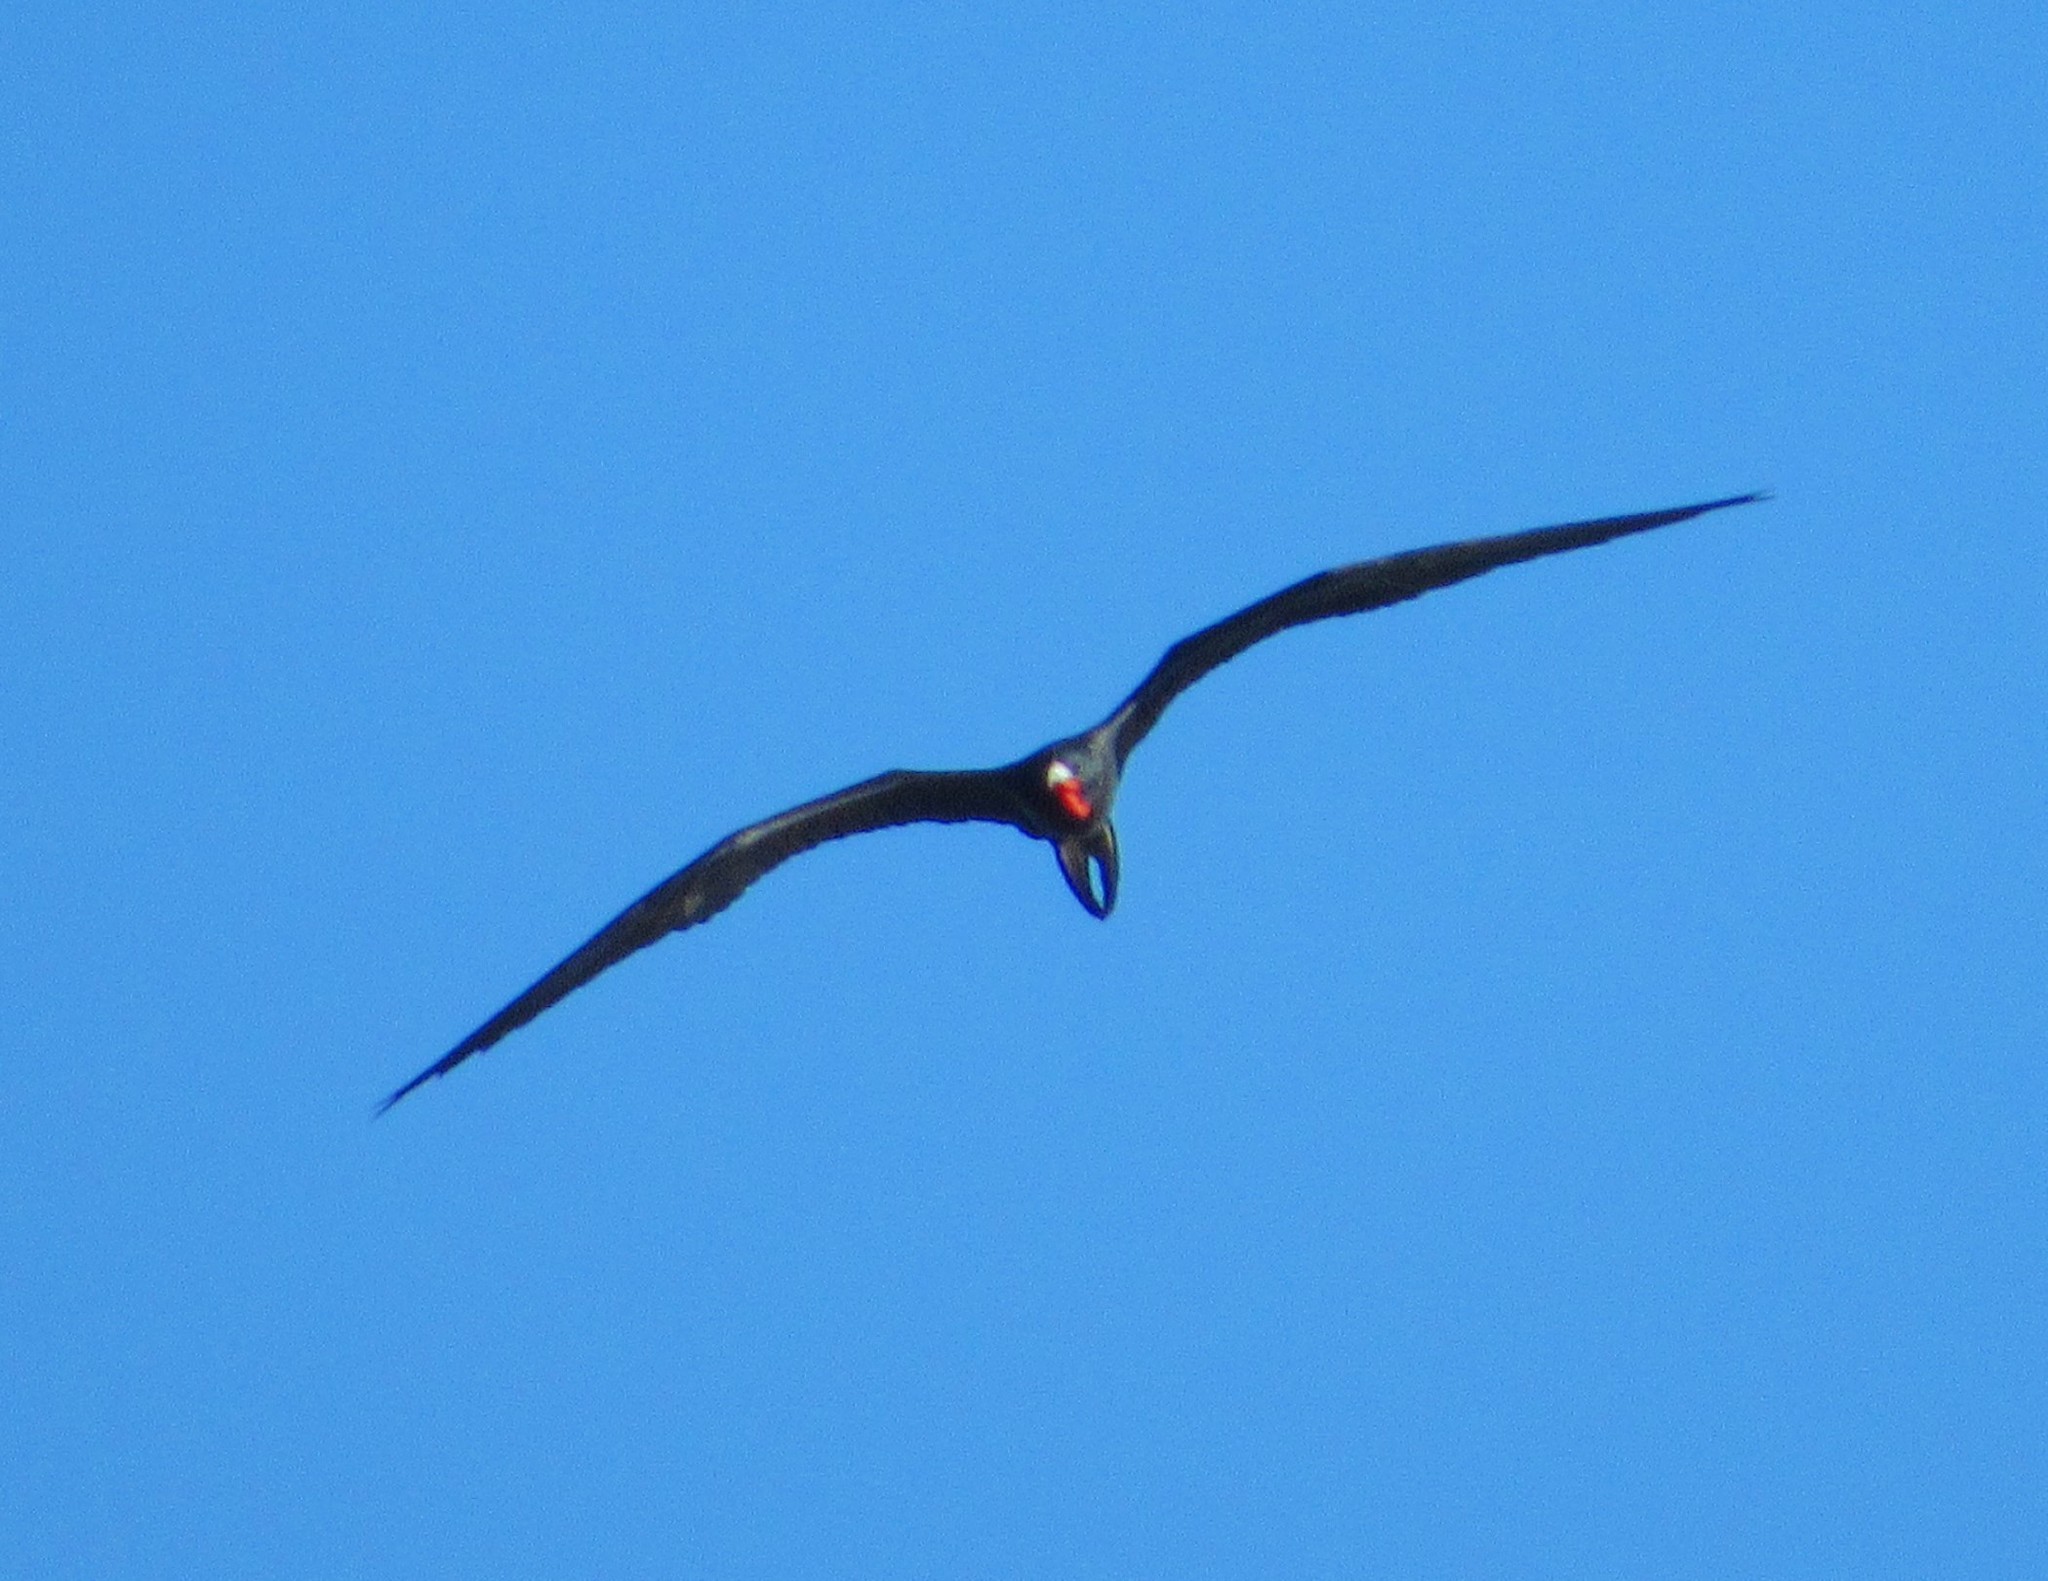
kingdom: Animalia
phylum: Chordata
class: Aves
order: Suliformes
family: Fregatidae
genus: Fregata
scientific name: Fregata magnificens
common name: Magnificent frigatebird
